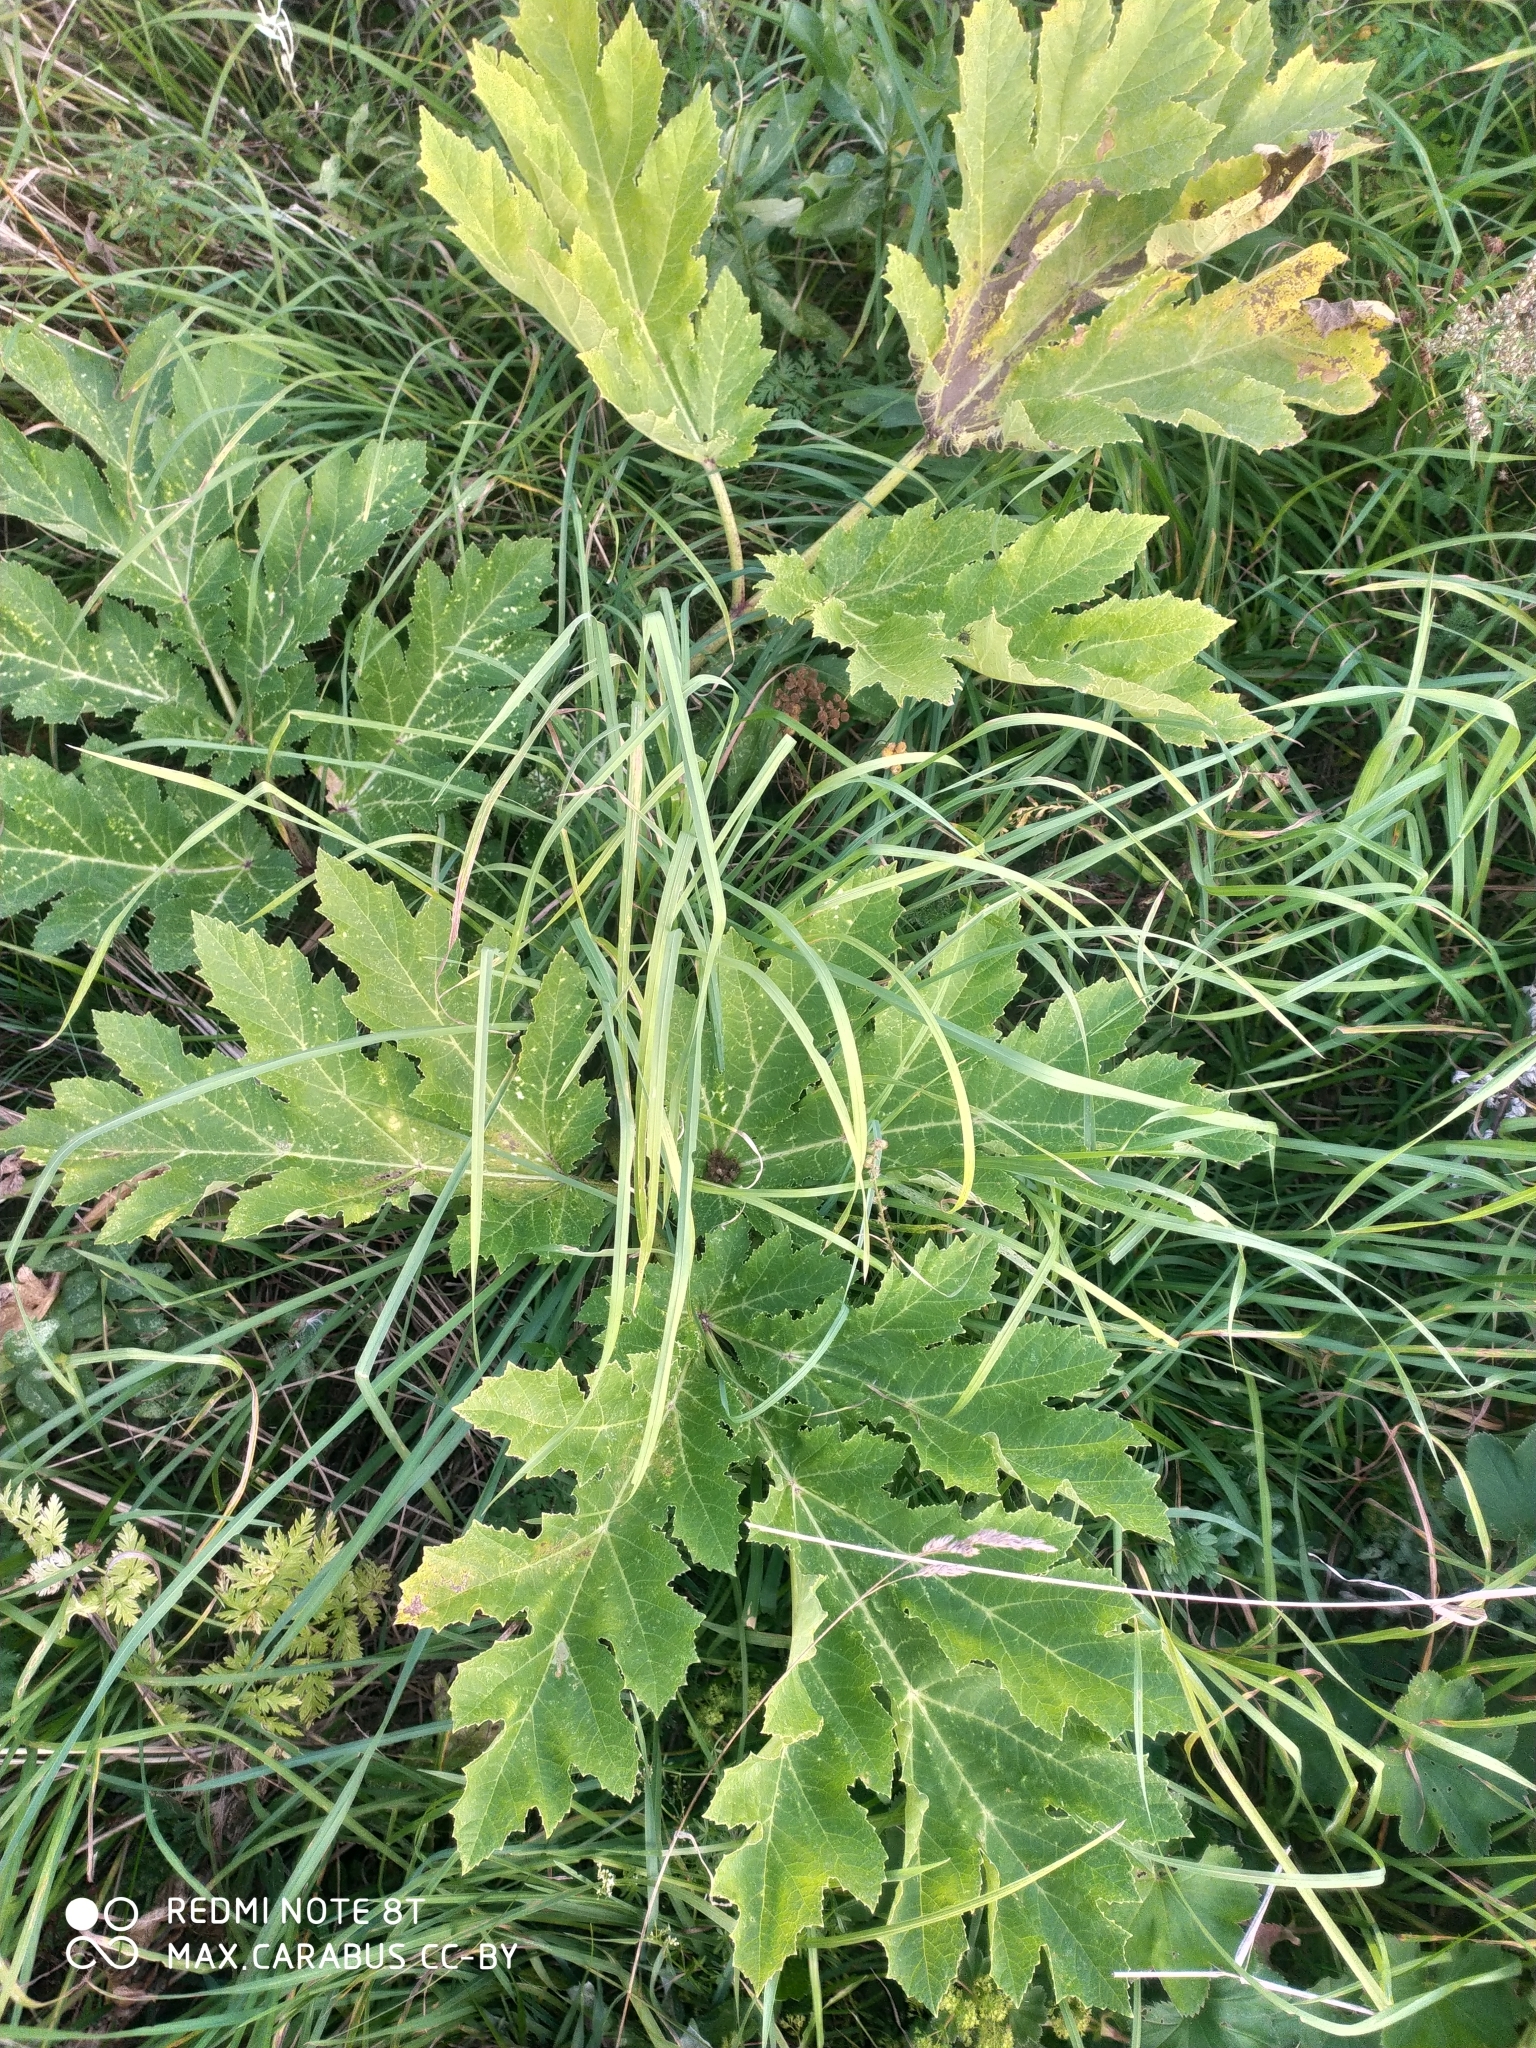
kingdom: Plantae
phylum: Tracheophyta
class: Magnoliopsida
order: Apiales
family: Apiaceae
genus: Heracleum
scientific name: Heracleum sosnowskyi
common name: Sosnowsky's hogweed
